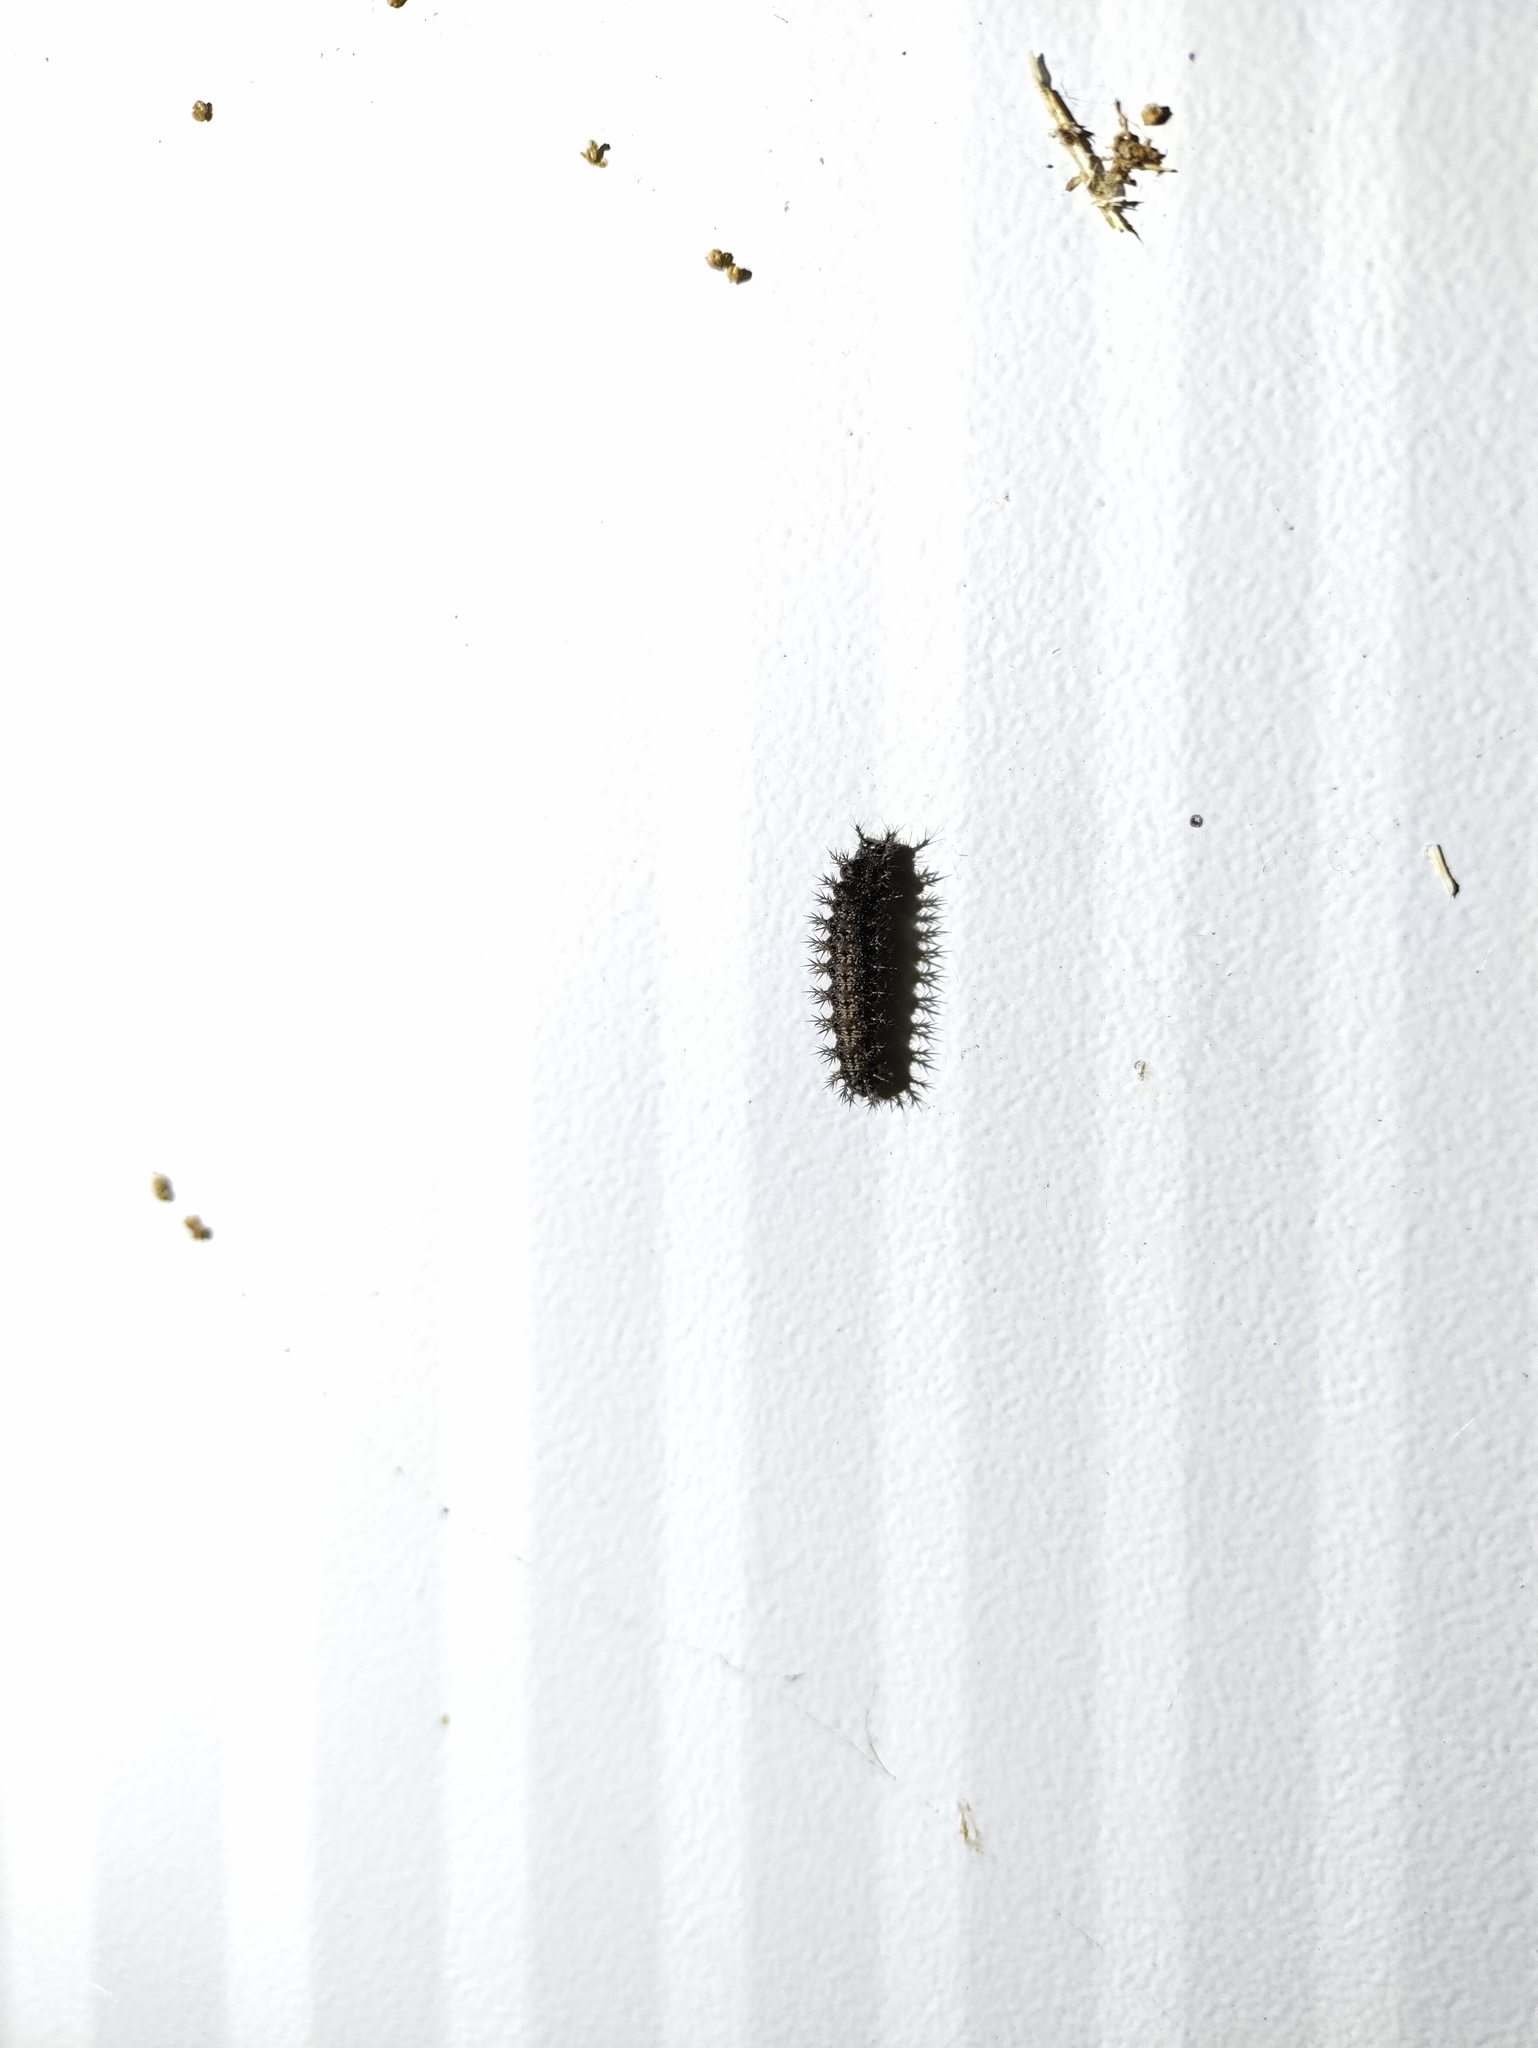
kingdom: Animalia
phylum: Arthropoda
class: Insecta
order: Lepidoptera
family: Nymphalidae
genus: Araschnia
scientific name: Araschnia levana
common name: Map butterfly
